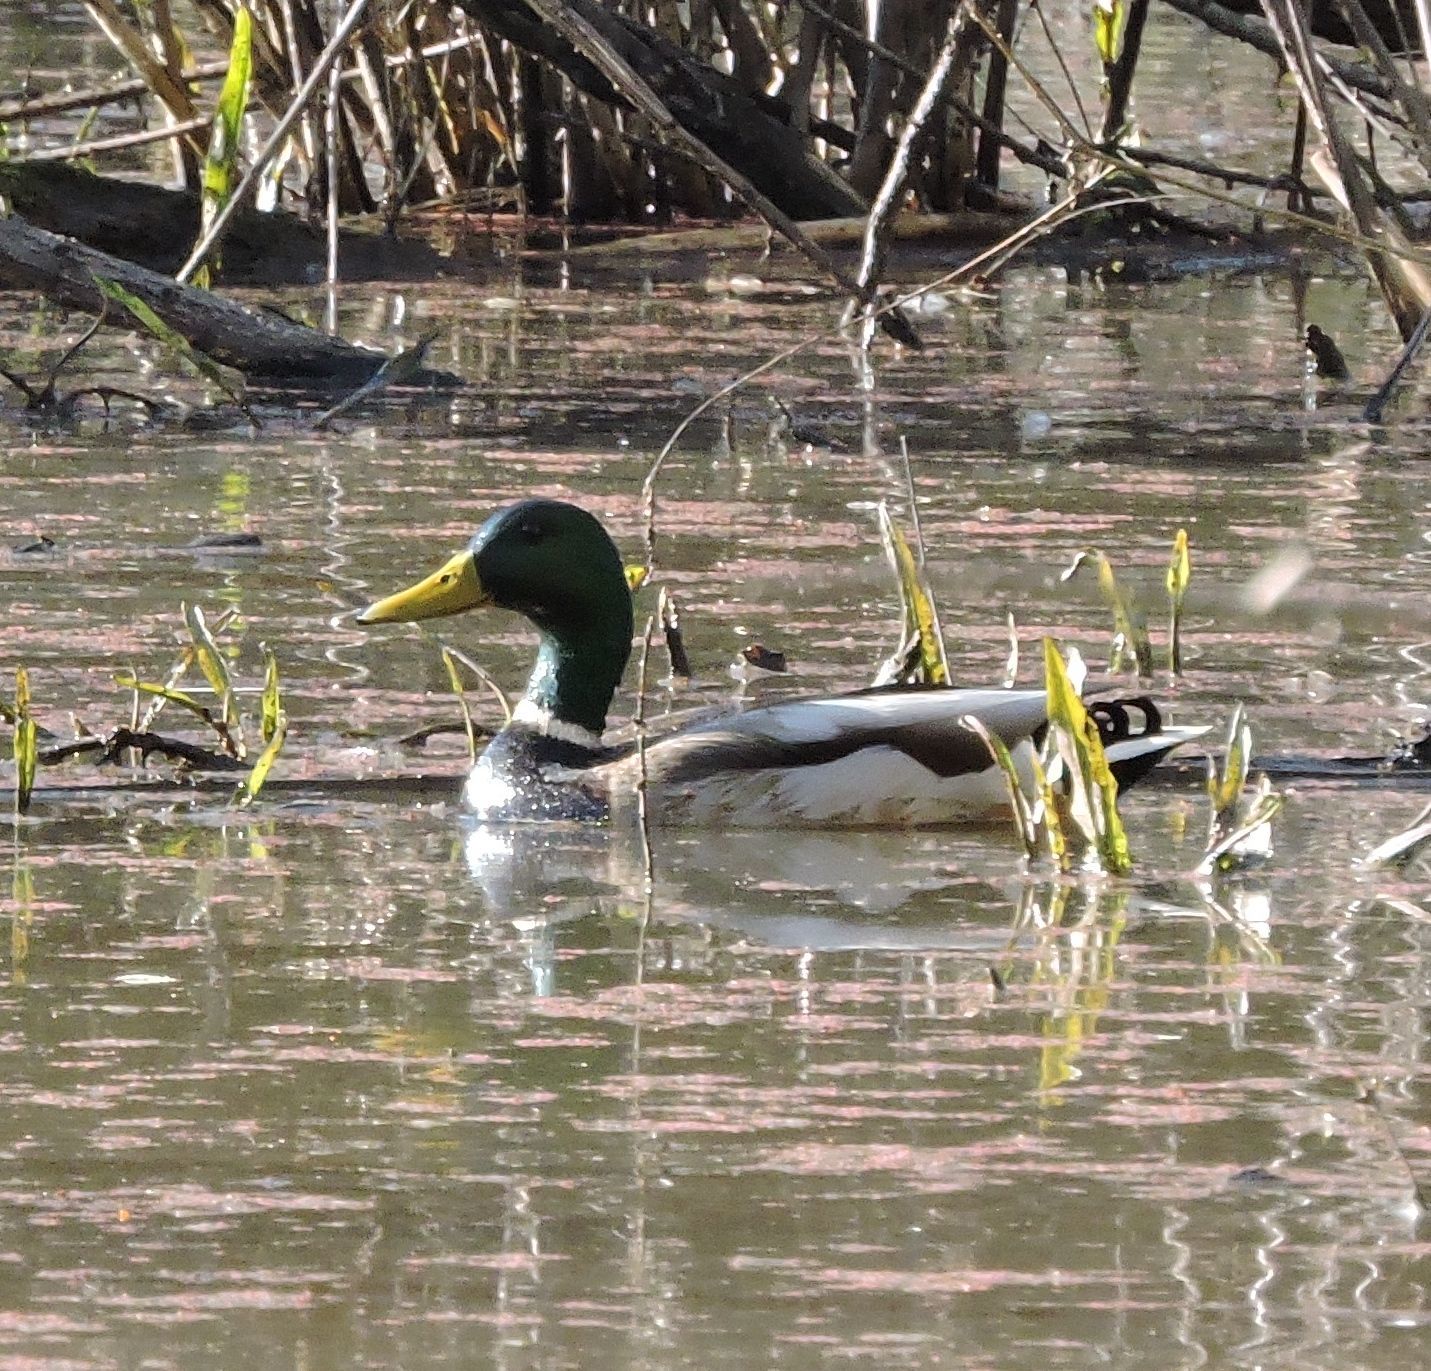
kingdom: Animalia
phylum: Chordata
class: Aves
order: Anseriformes
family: Anatidae
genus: Anas
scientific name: Anas platyrhynchos
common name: Mallard
